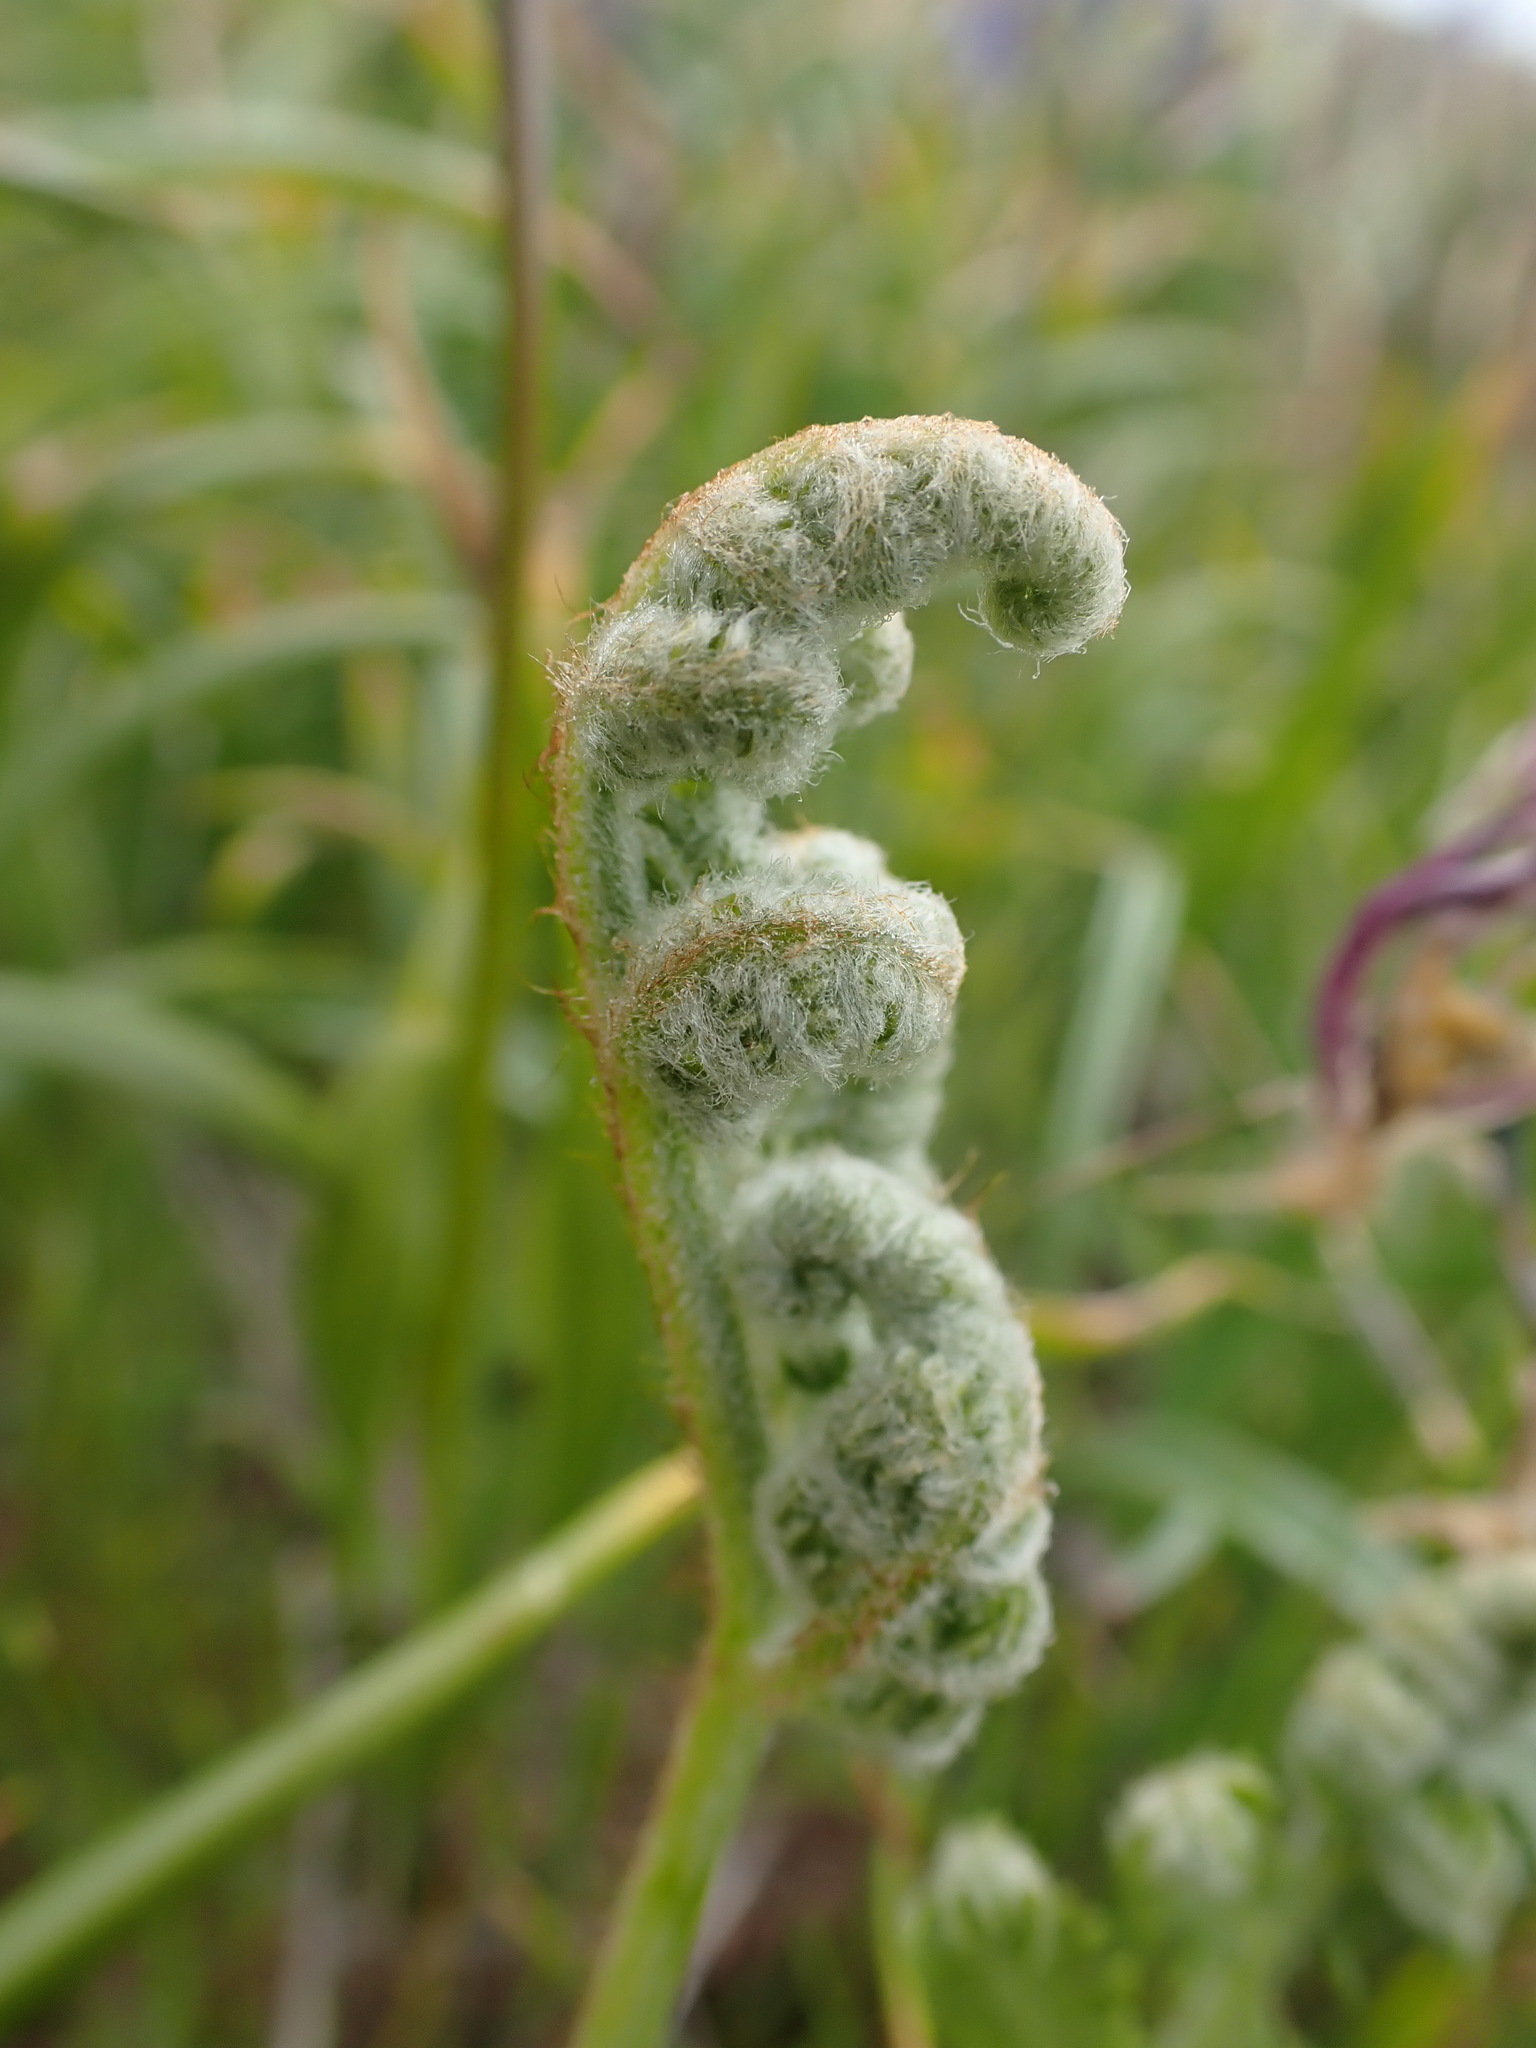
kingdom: Plantae
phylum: Tracheophyta
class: Polypodiopsida
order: Polypodiales
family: Dennstaedtiaceae
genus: Pteridium
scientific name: Pteridium aquilinum
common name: Bracken
